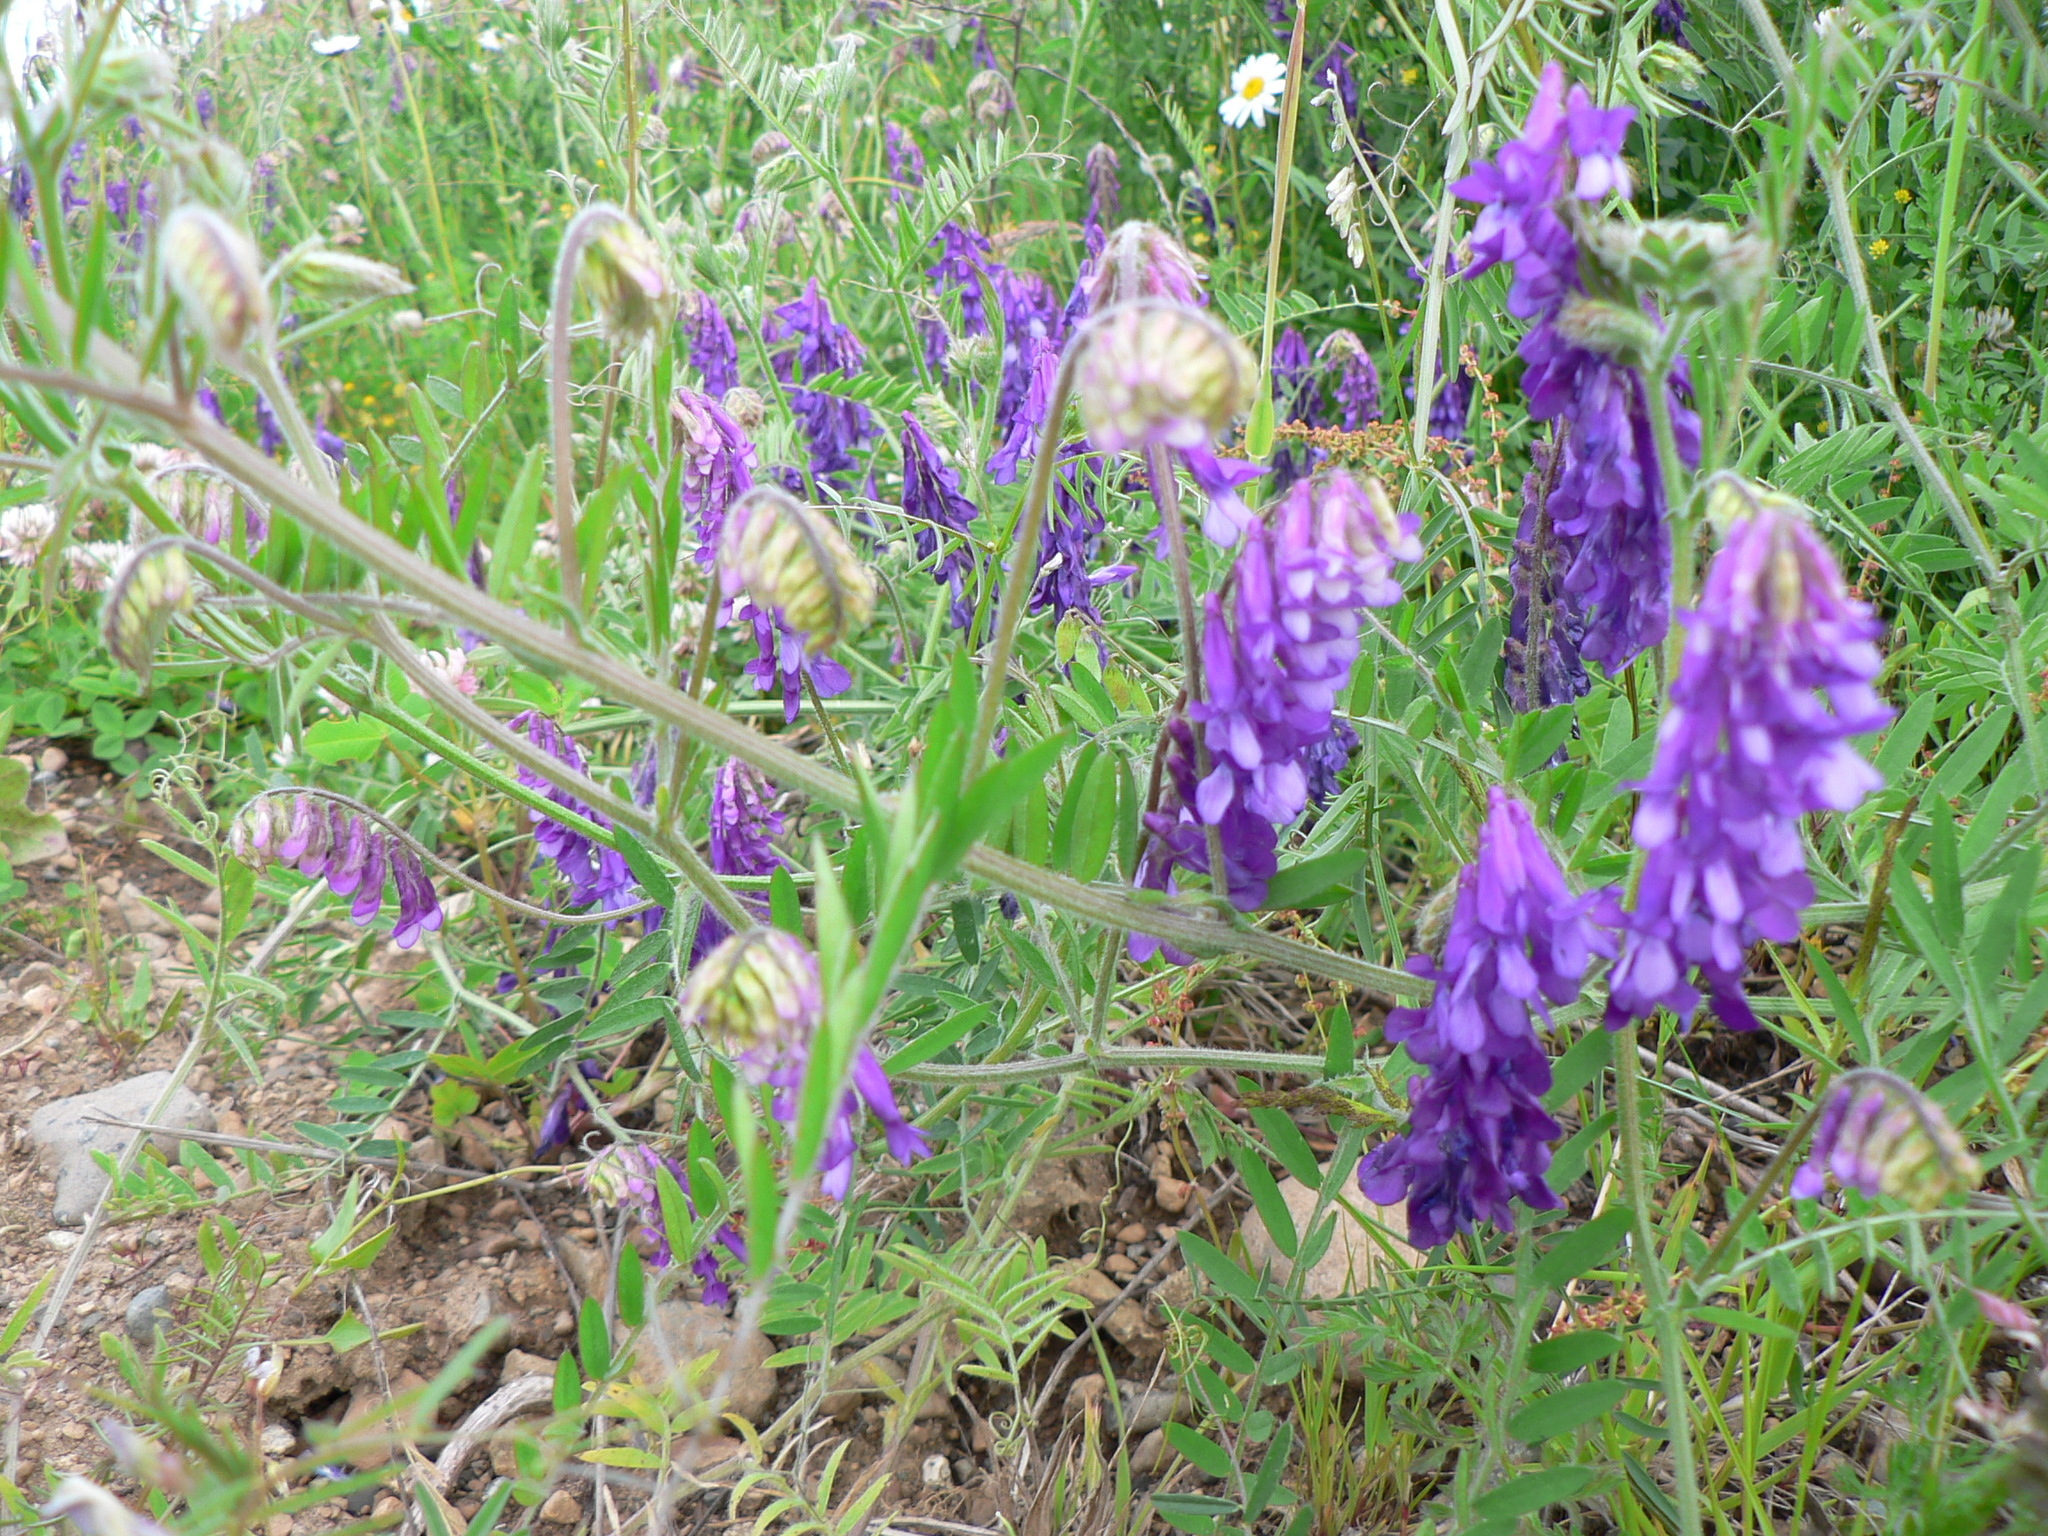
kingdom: Plantae
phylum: Tracheophyta
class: Magnoliopsida
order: Fabales
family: Fabaceae
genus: Vicia
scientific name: Vicia villosa
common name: Fodder vetch
